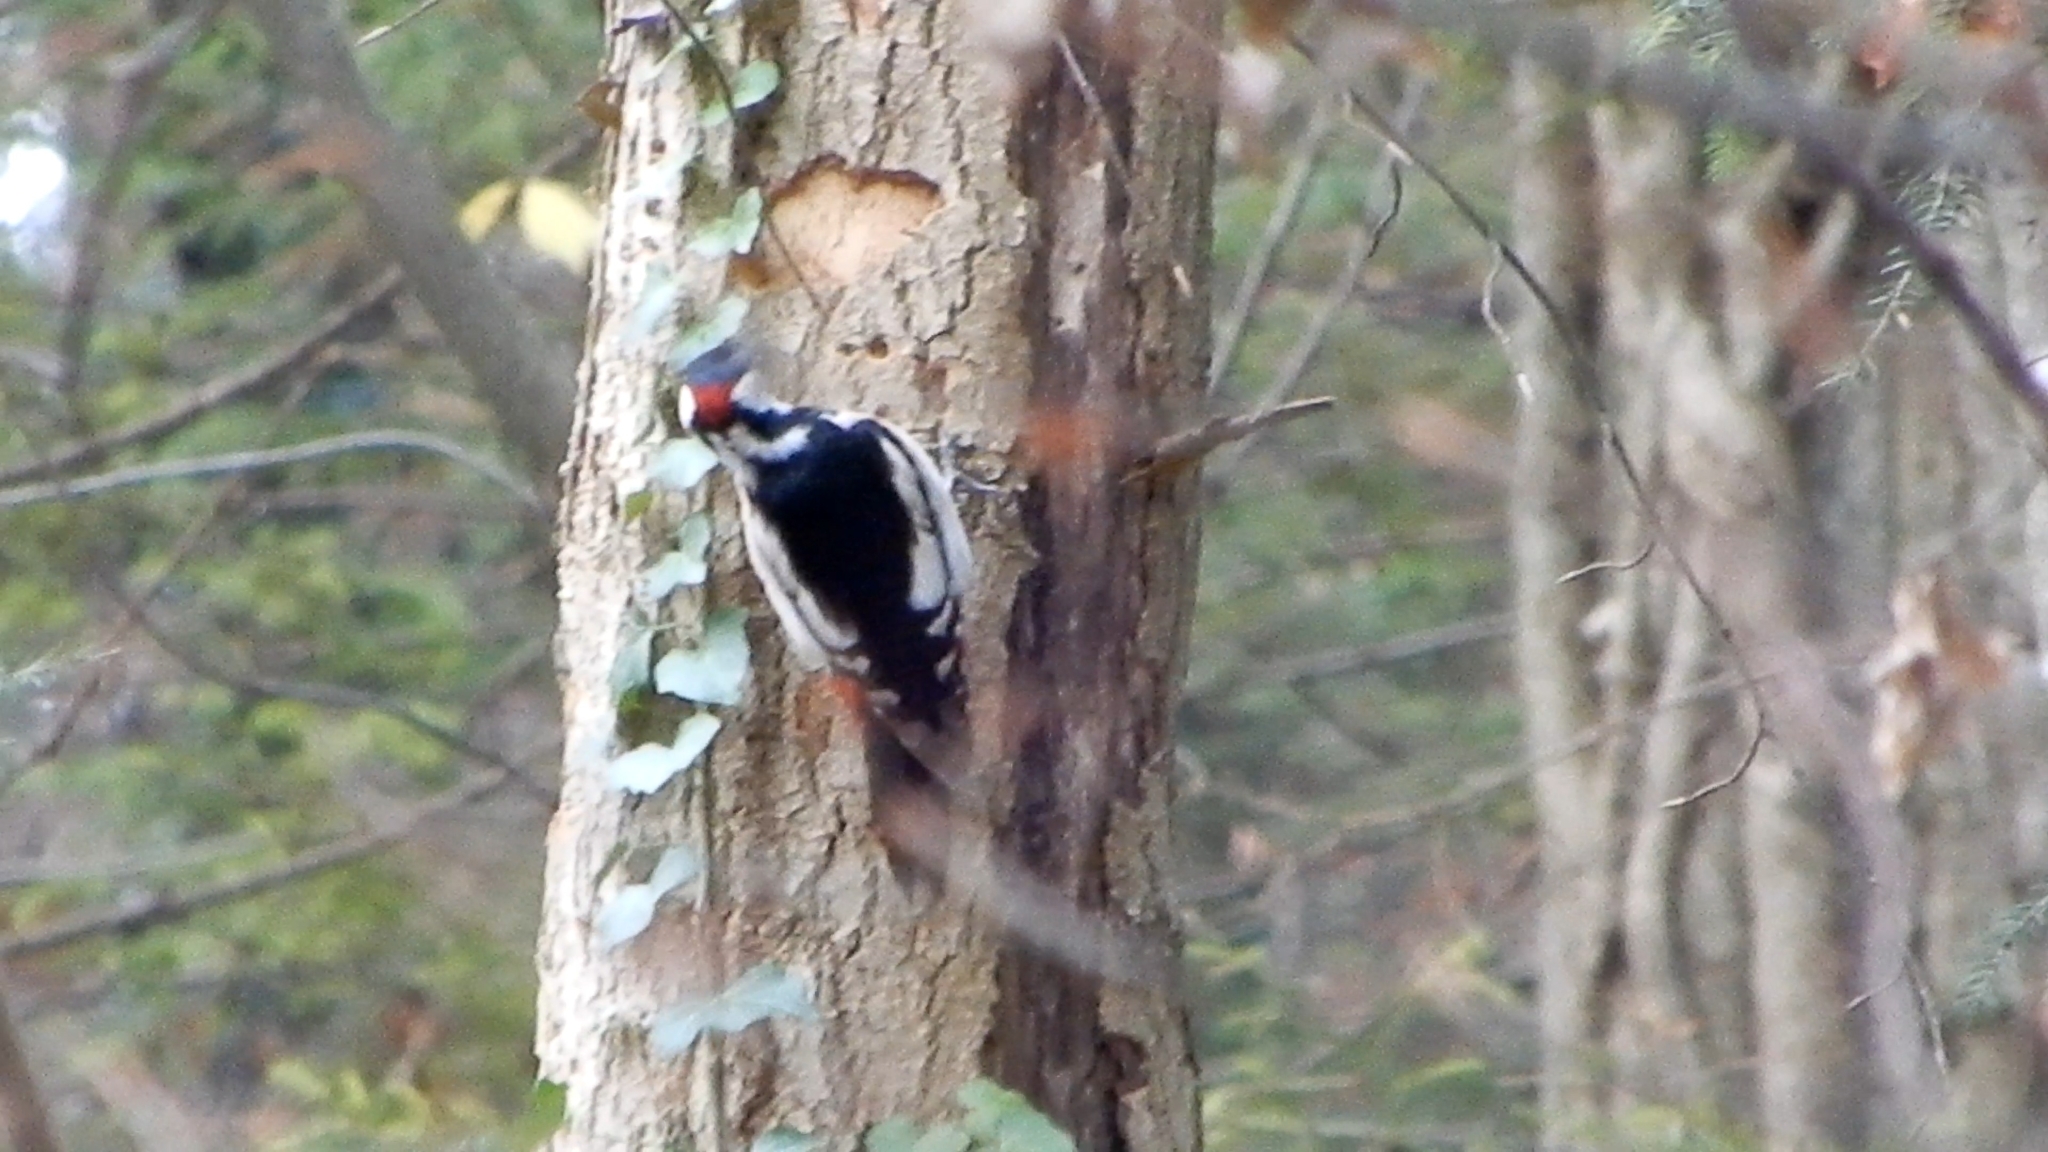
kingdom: Animalia
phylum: Chordata
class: Aves
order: Piciformes
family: Picidae
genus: Dendrocopos
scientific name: Dendrocopos major
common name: Great spotted woodpecker
